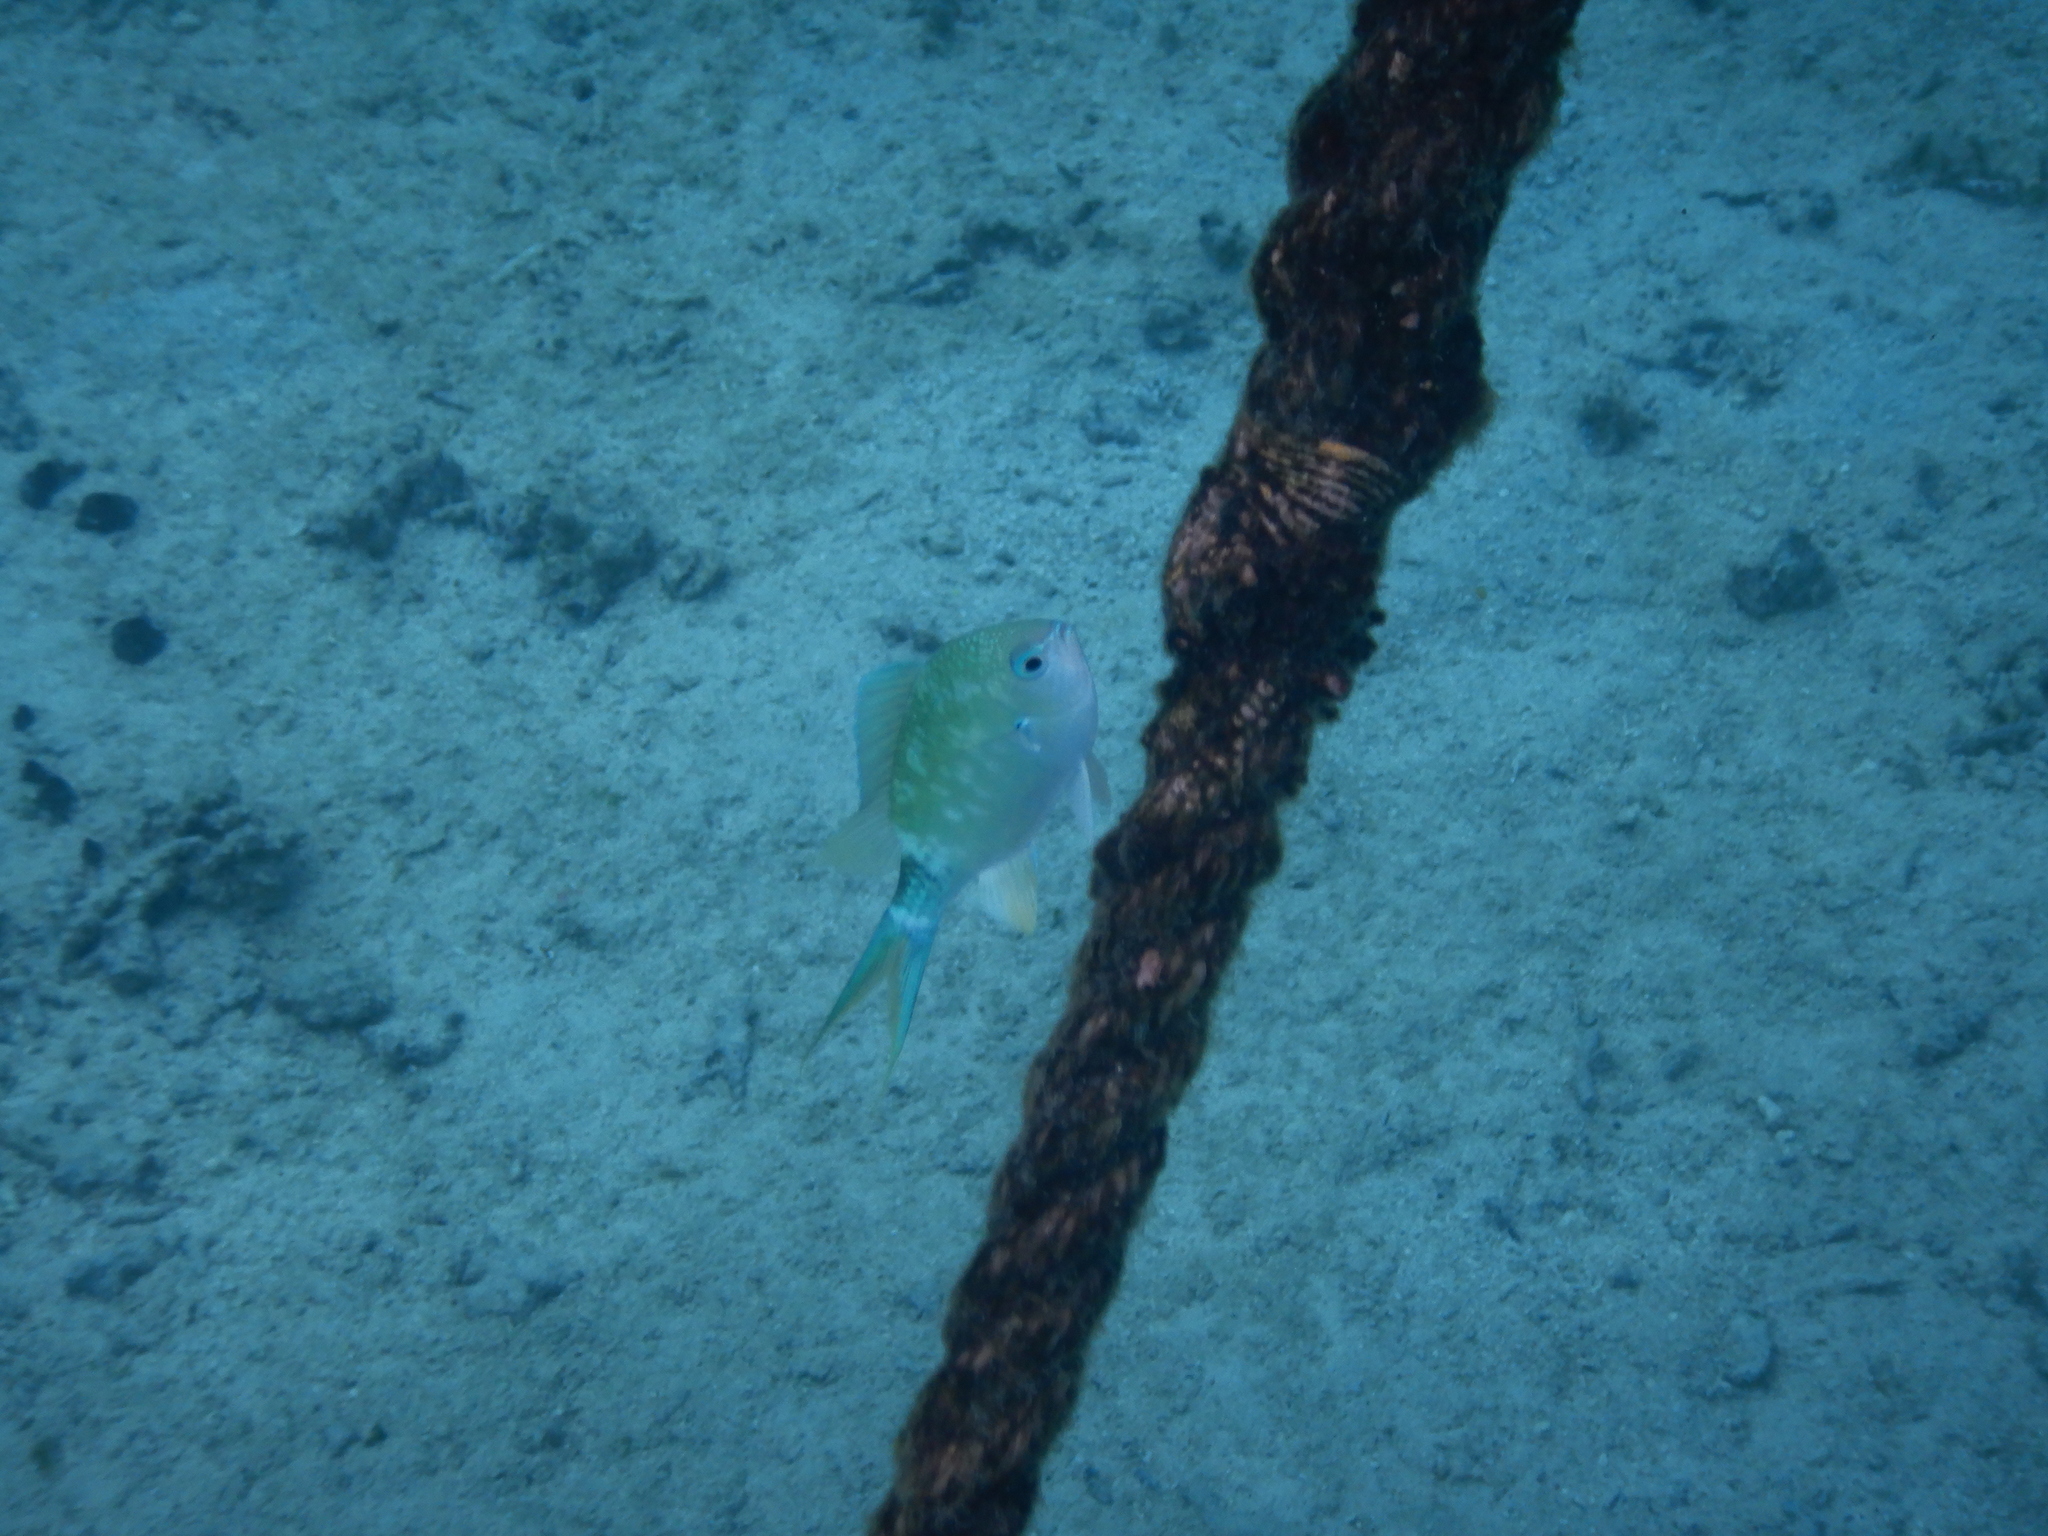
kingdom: Animalia
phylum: Chordata
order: Perciformes
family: Pomacentridae
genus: Chromis
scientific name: Chromis atripectoralis
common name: Black-axil chromis
